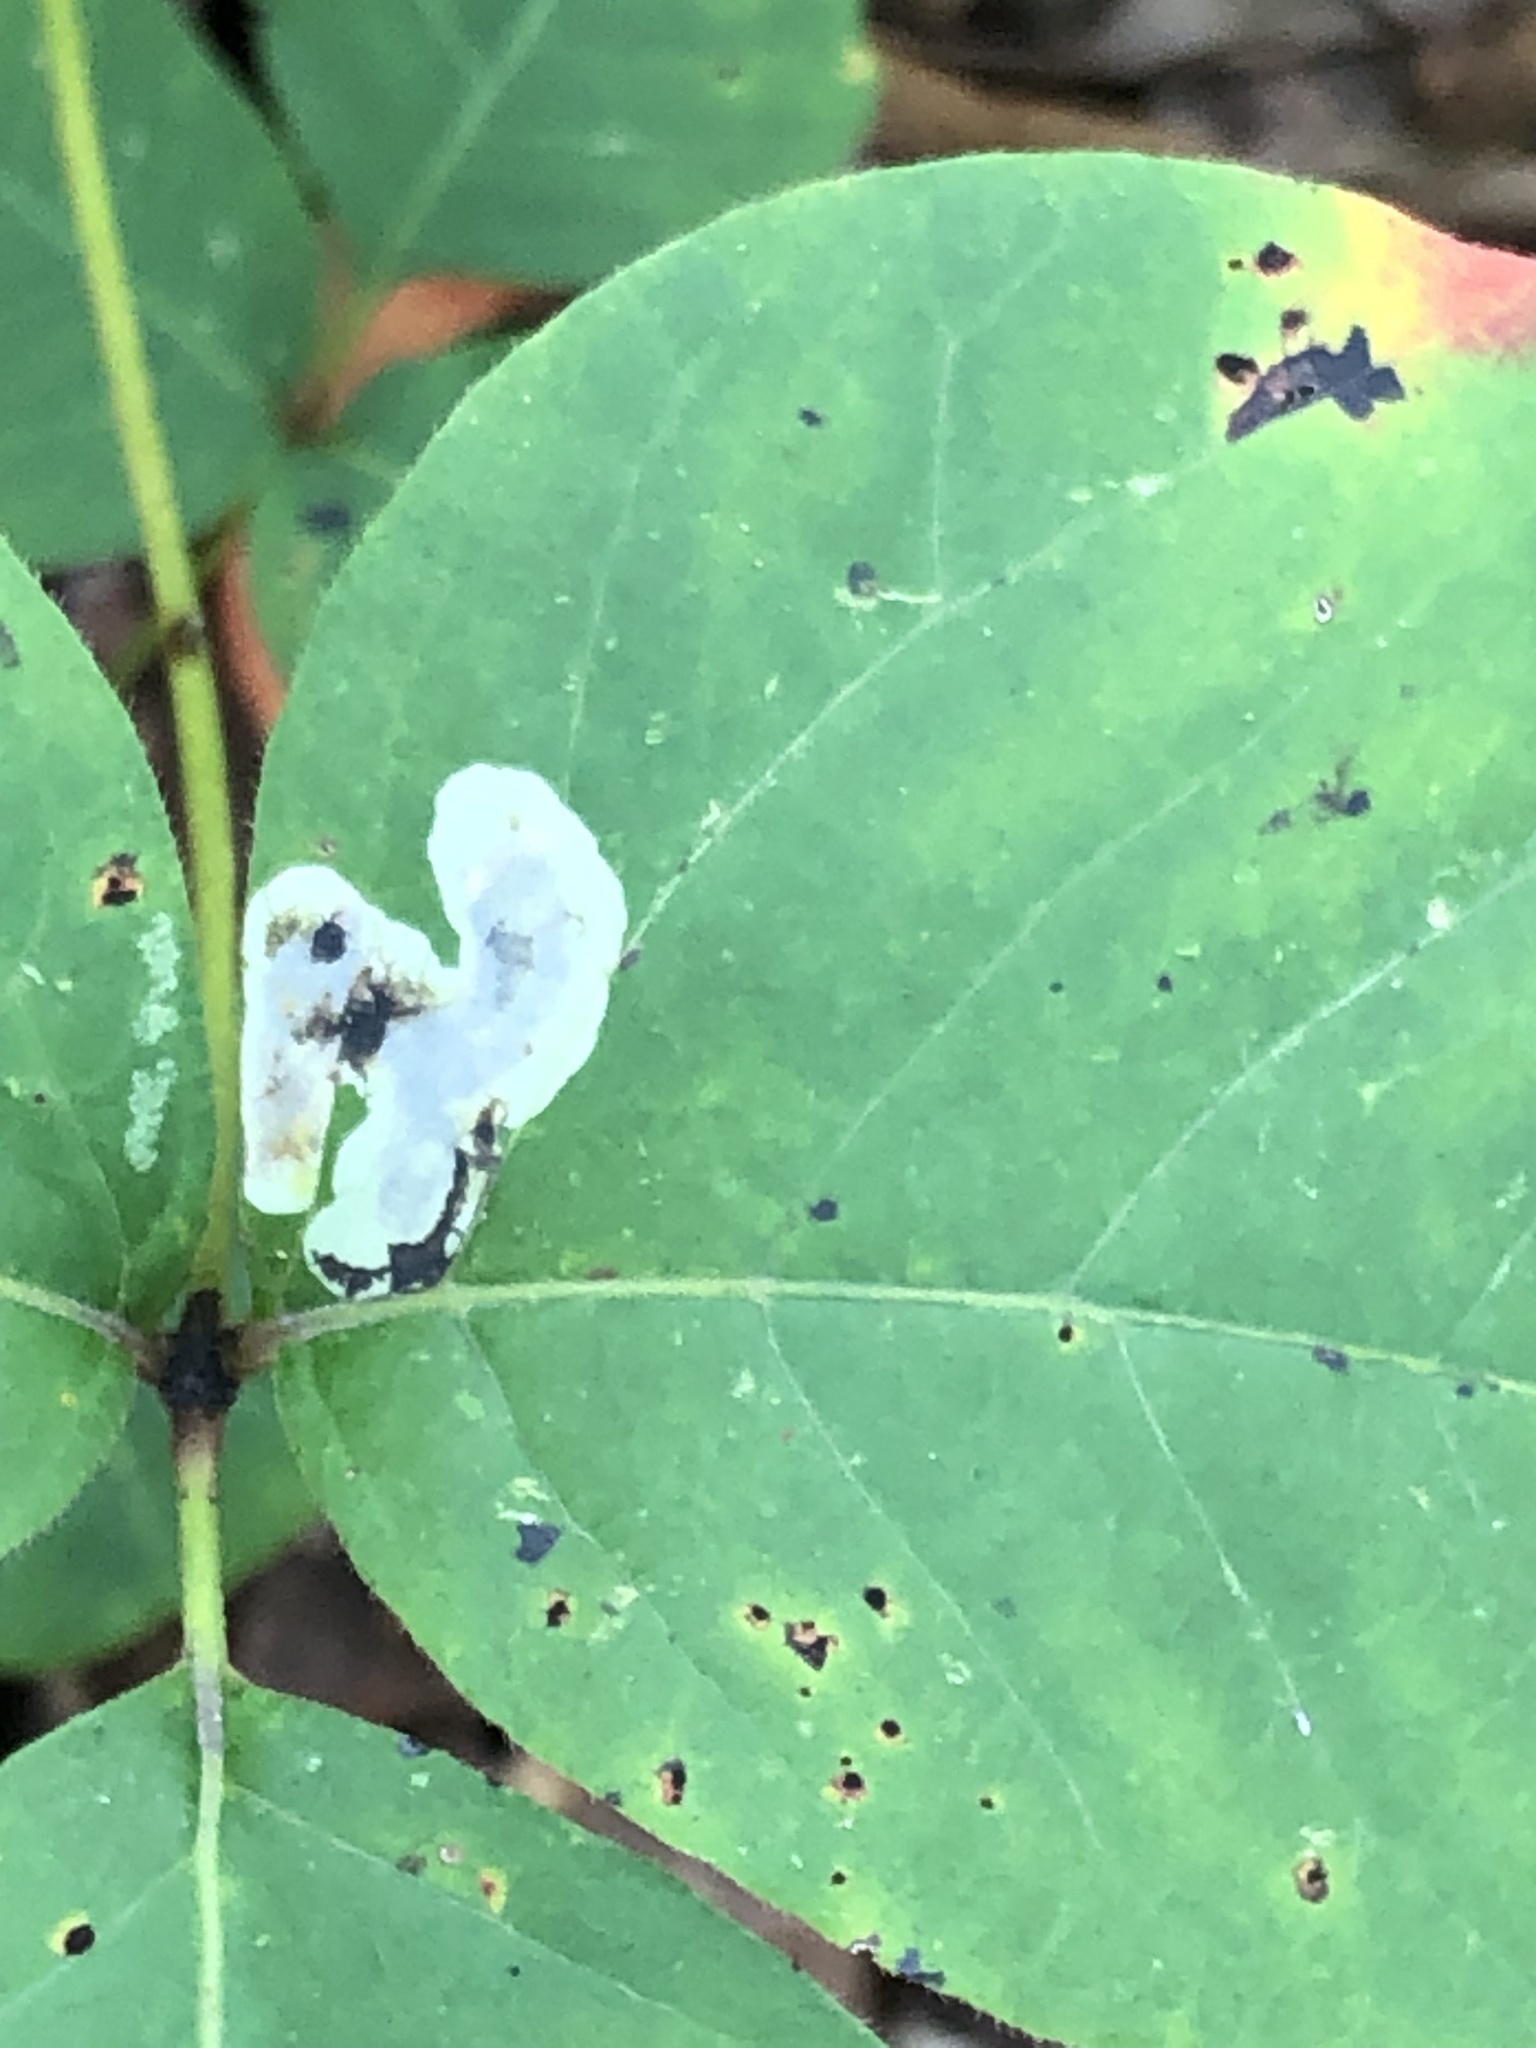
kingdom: Animalia
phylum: Arthropoda
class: Insecta
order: Lepidoptera
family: Gracillariidae
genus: Cameraria
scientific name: Cameraria guttifinitella
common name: Poison ivy leaf-miner moth
